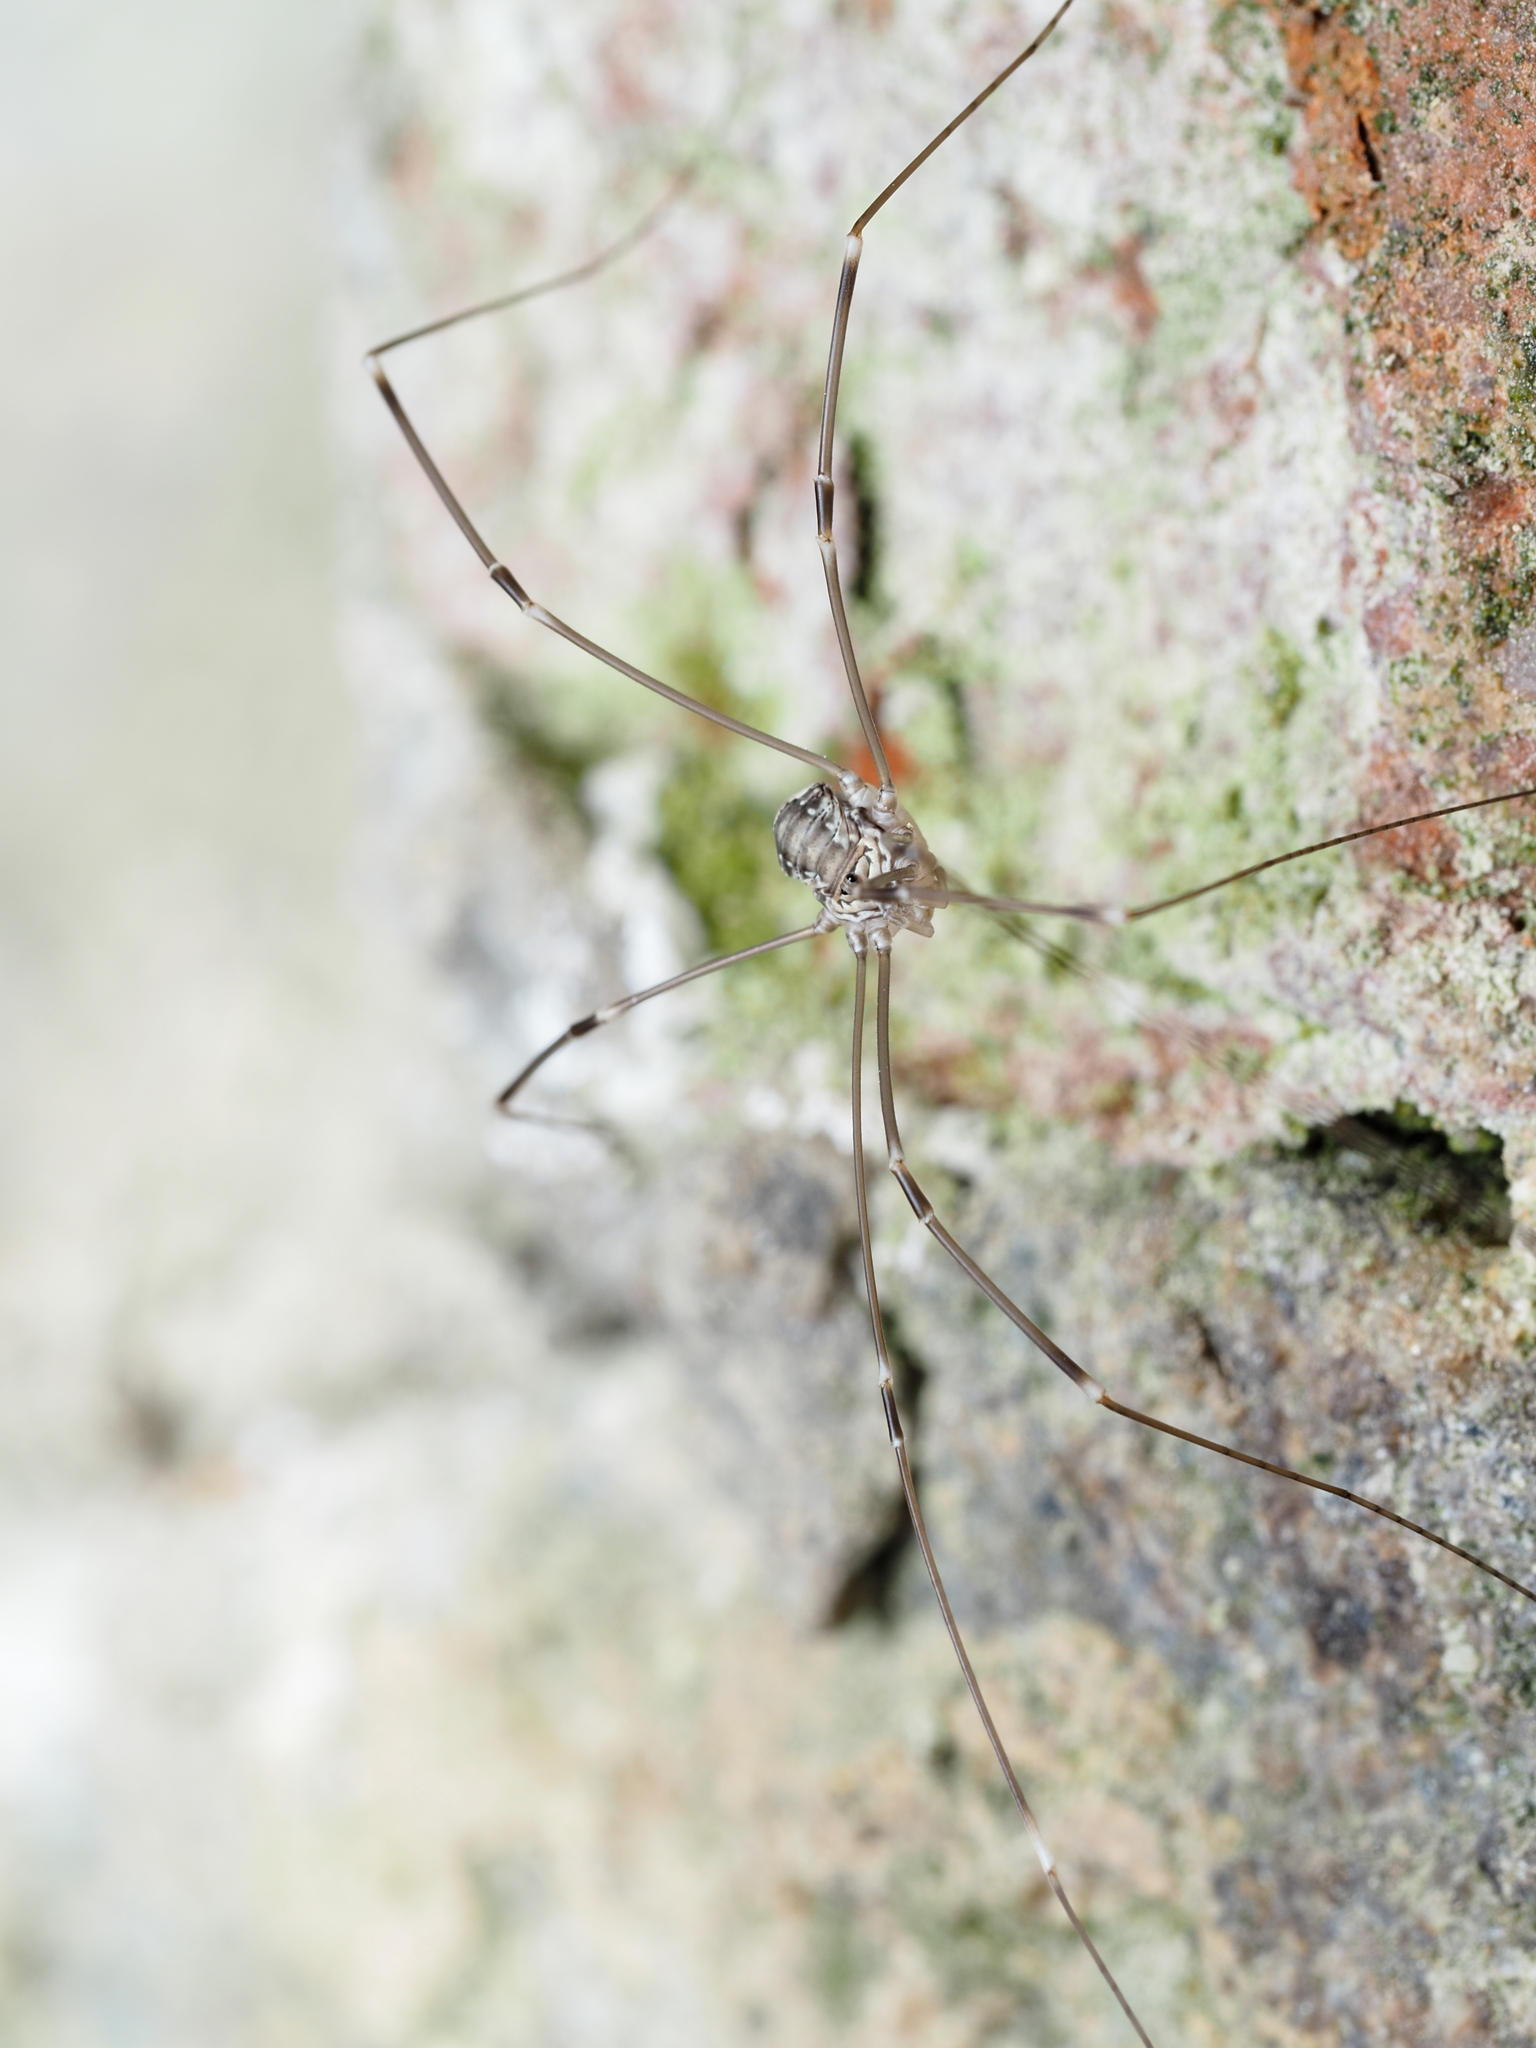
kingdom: Animalia
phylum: Arthropoda
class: Arachnida
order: Opiliones
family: Sclerosomatidae
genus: Leiobunum
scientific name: Leiobunum limbatum
